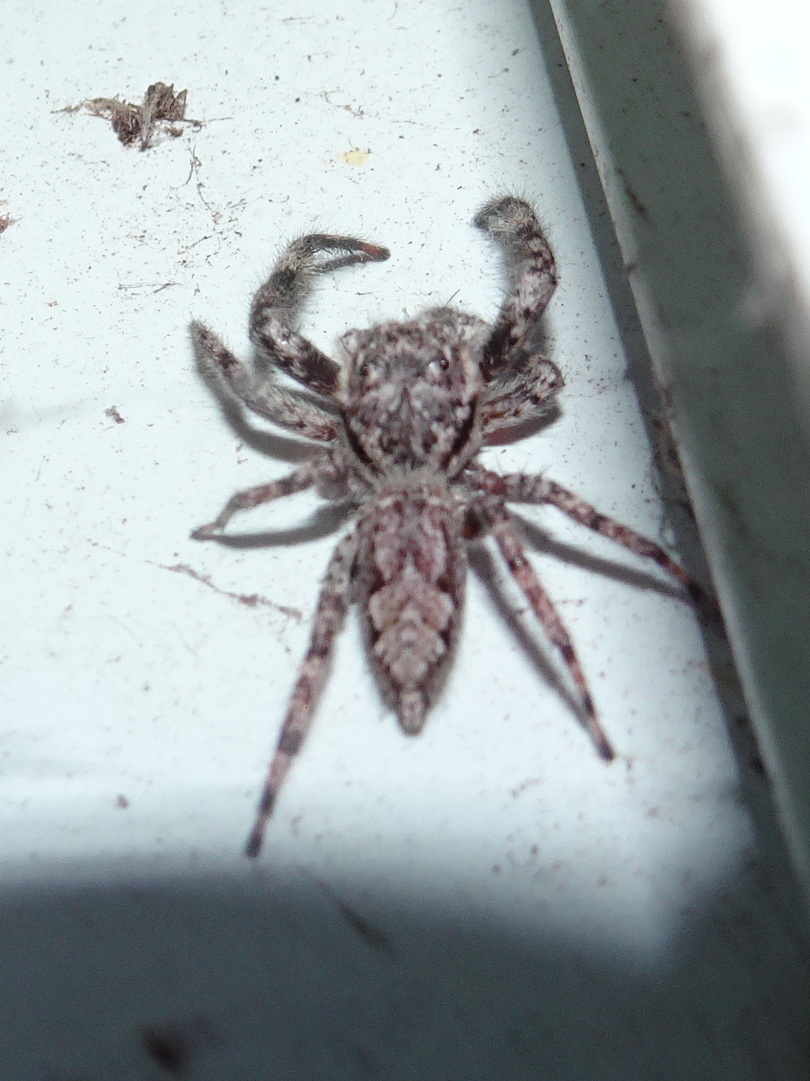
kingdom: Animalia
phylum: Arthropoda
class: Arachnida
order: Araneae
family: Salticidae
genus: Platycryptus
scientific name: Platycryptus undatus
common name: Tan jumping spider
